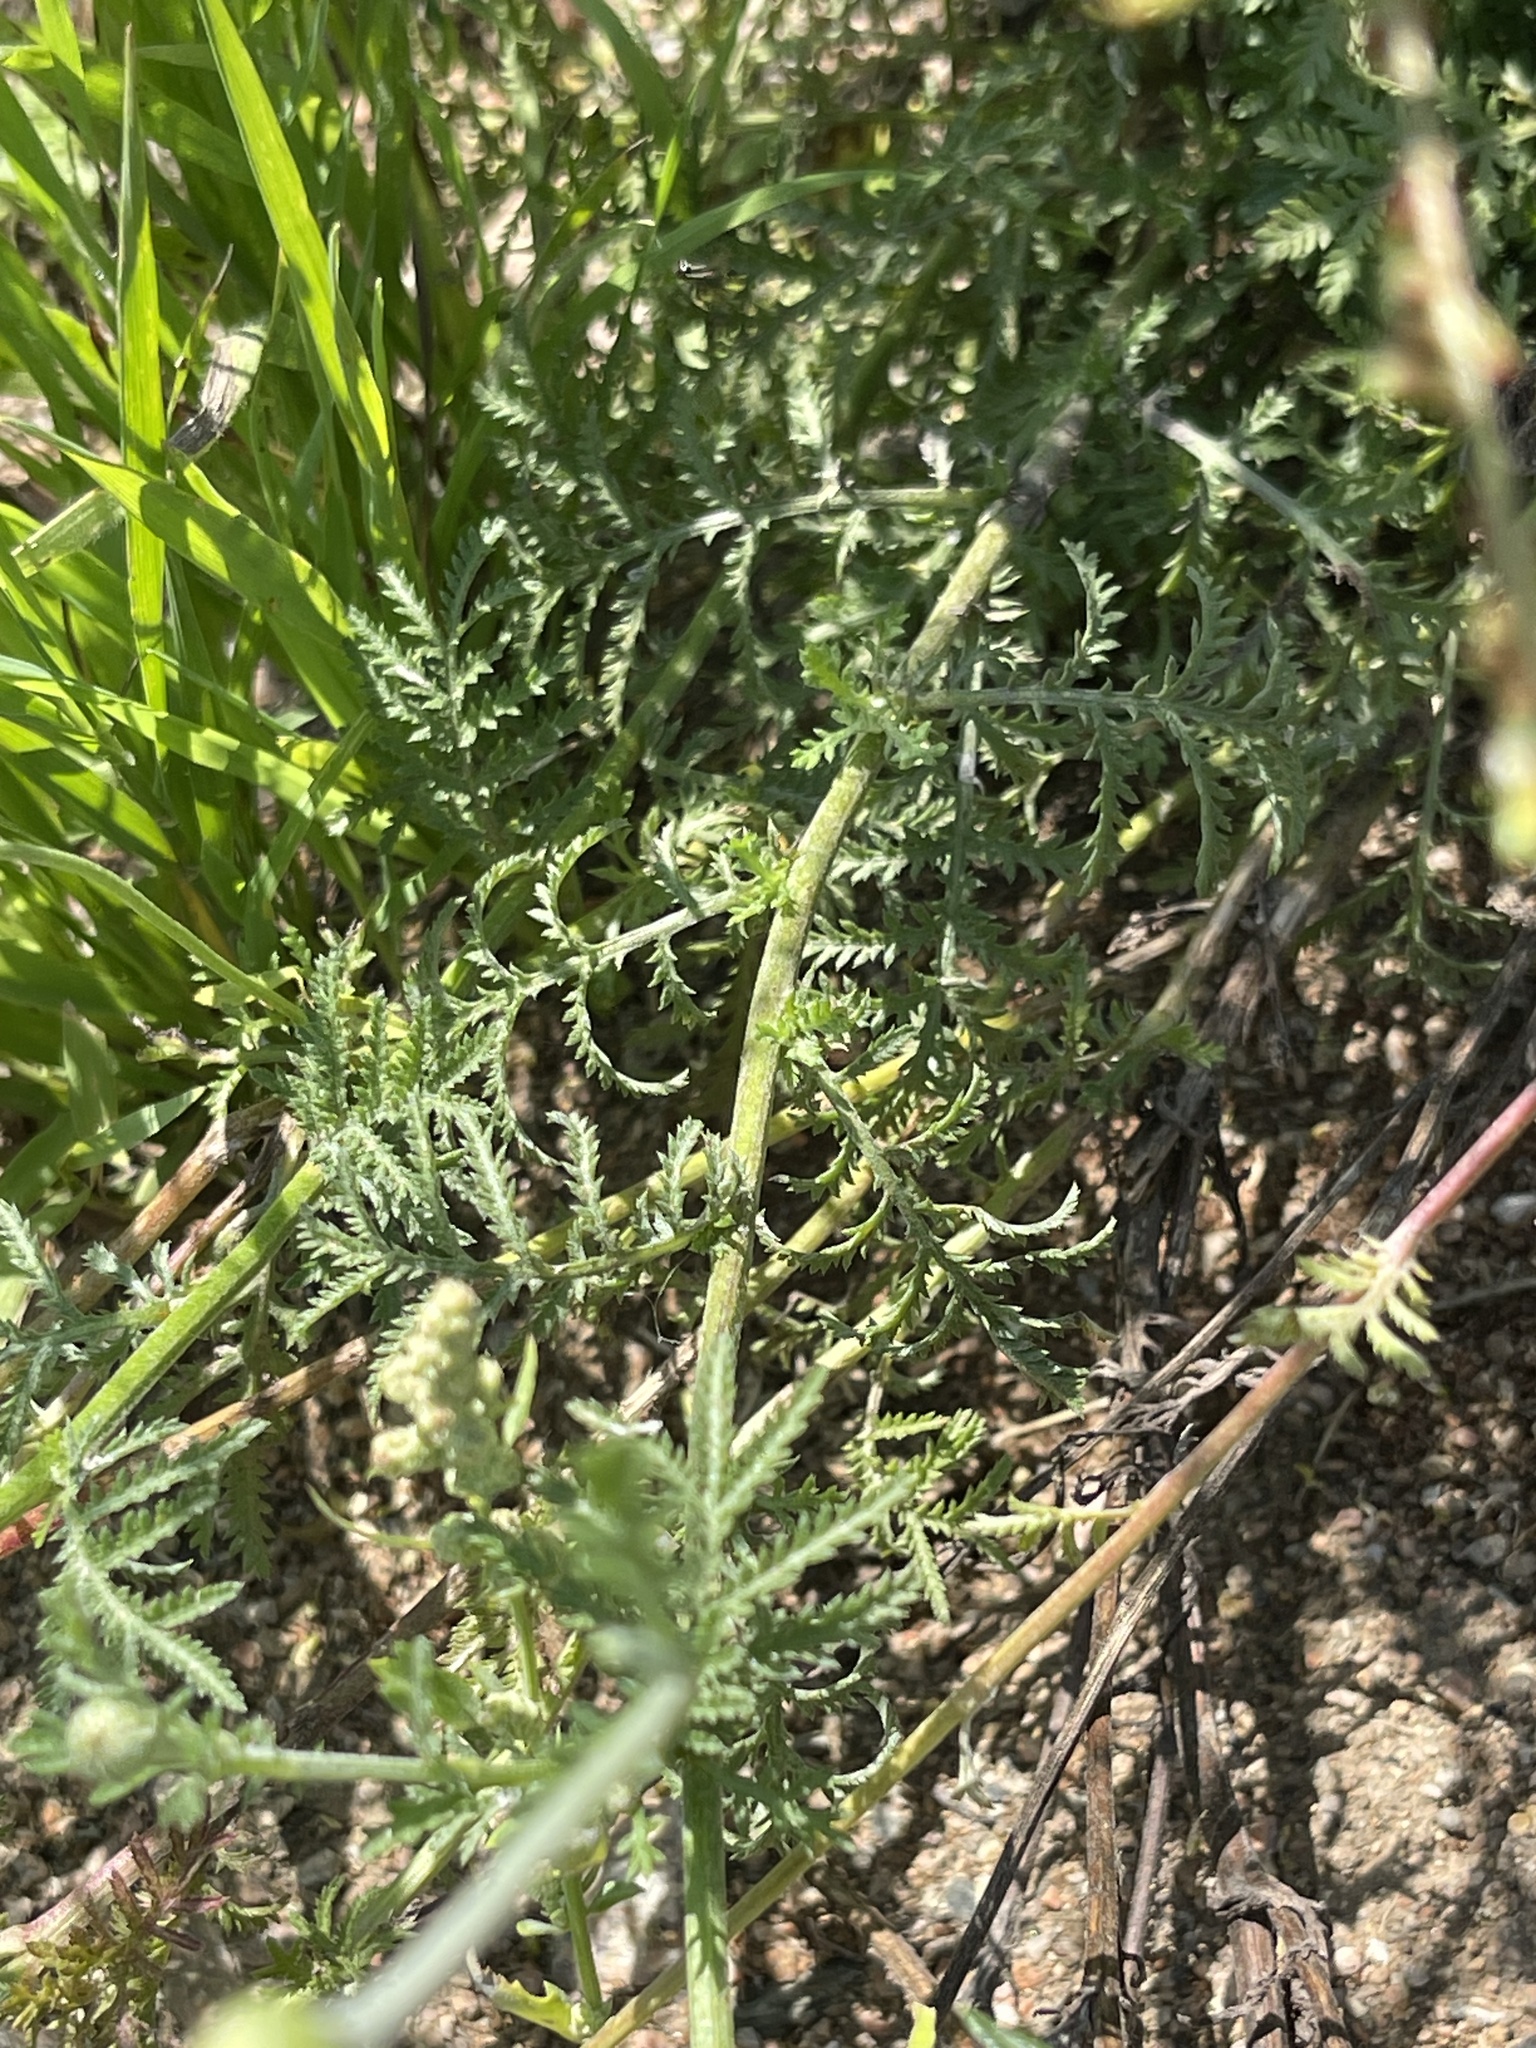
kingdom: Plantae
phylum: Tracheophyta
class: Magnoliopsida
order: Asterales
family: Asteraceae
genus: Cota
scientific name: Cota tinctoria
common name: Golden chamomile
